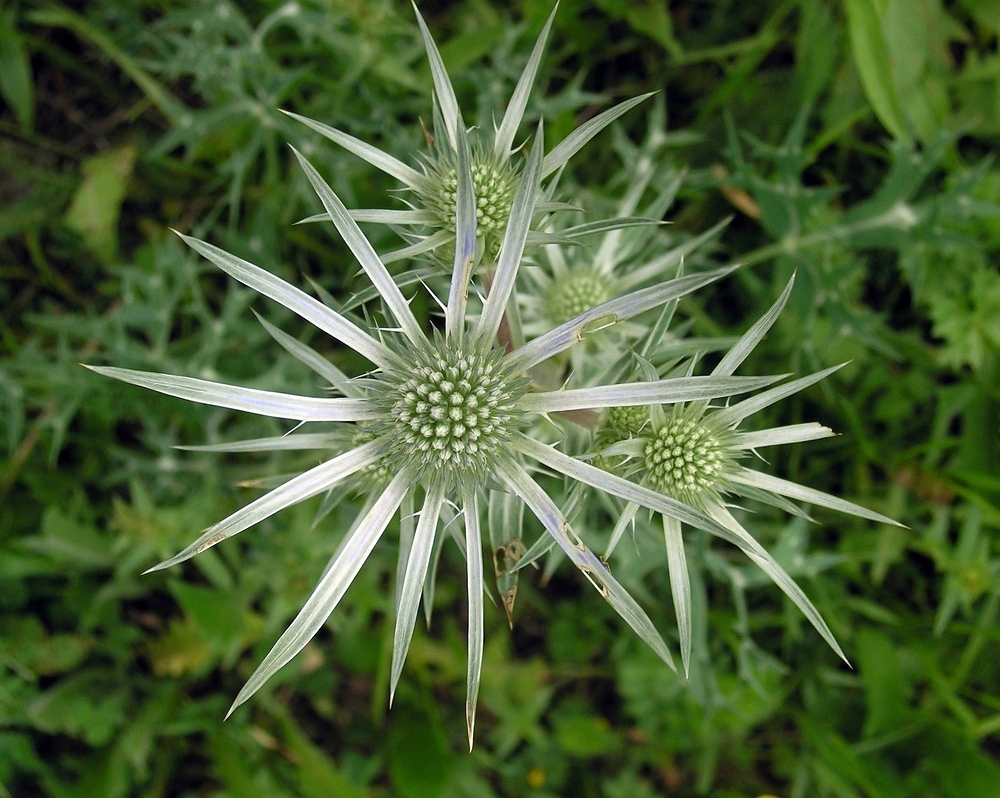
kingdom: Plantae
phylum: Tracheophyta
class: Magnoliopsida
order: Apiales
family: Apiaceae
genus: Eryngium
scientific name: Eryngium bourgatii
